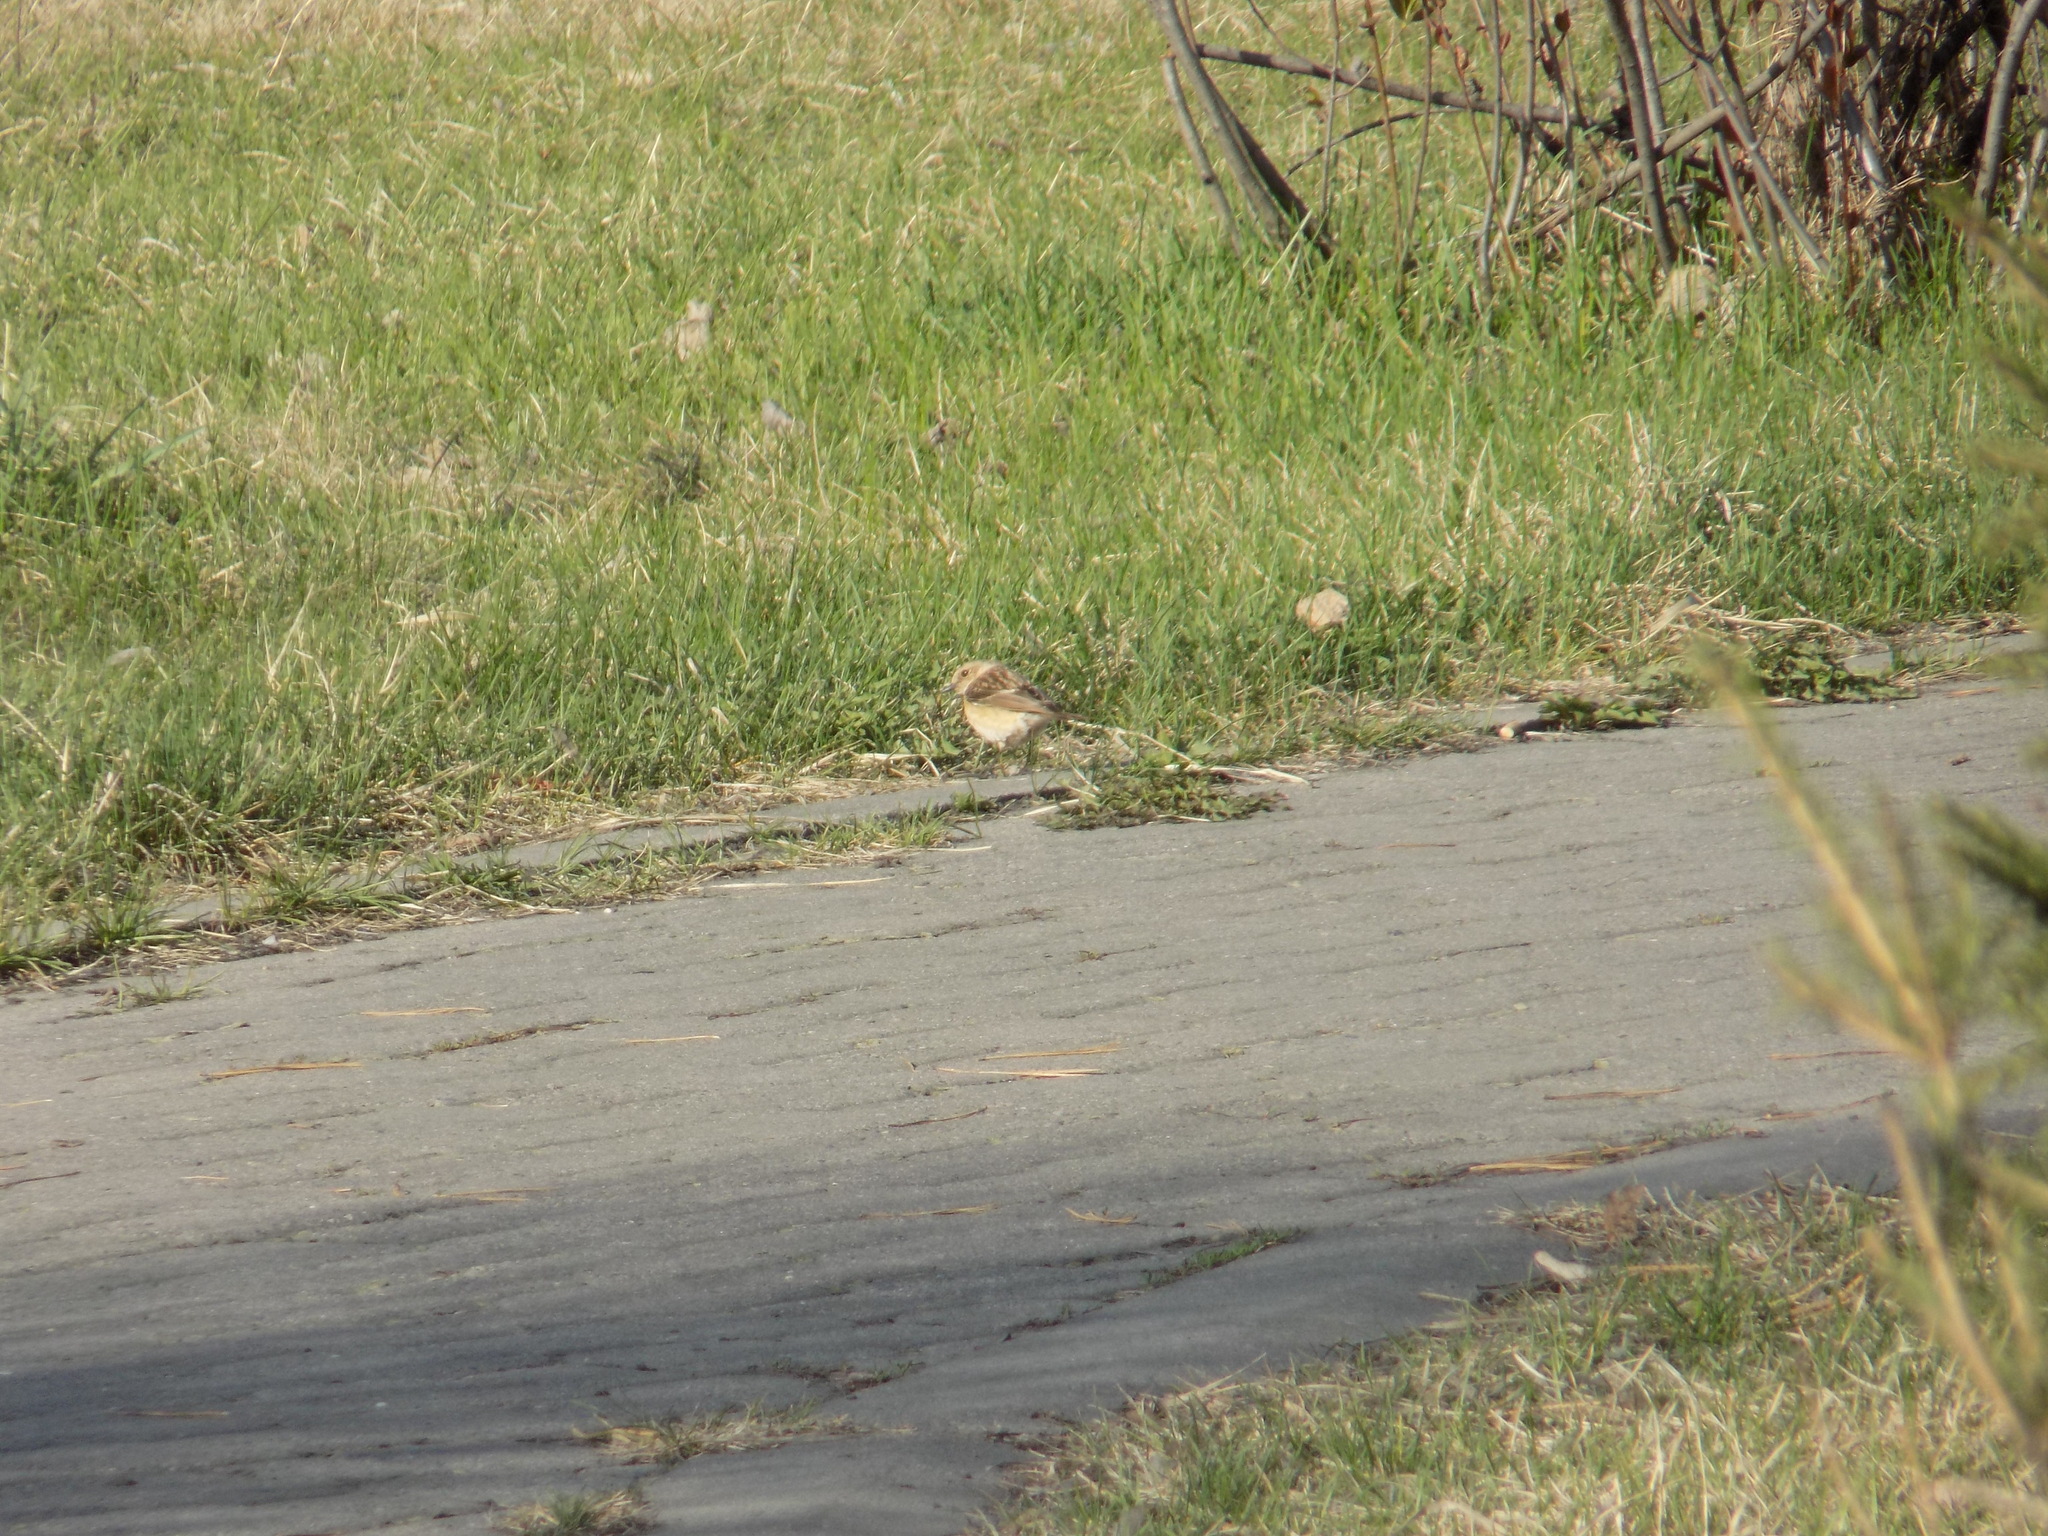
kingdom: Animalia
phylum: Chordata
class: Aves
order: Passeriformes
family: Muscicapidae
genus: Saxicola
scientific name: Saxicola maurus
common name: Siberian stonechat
